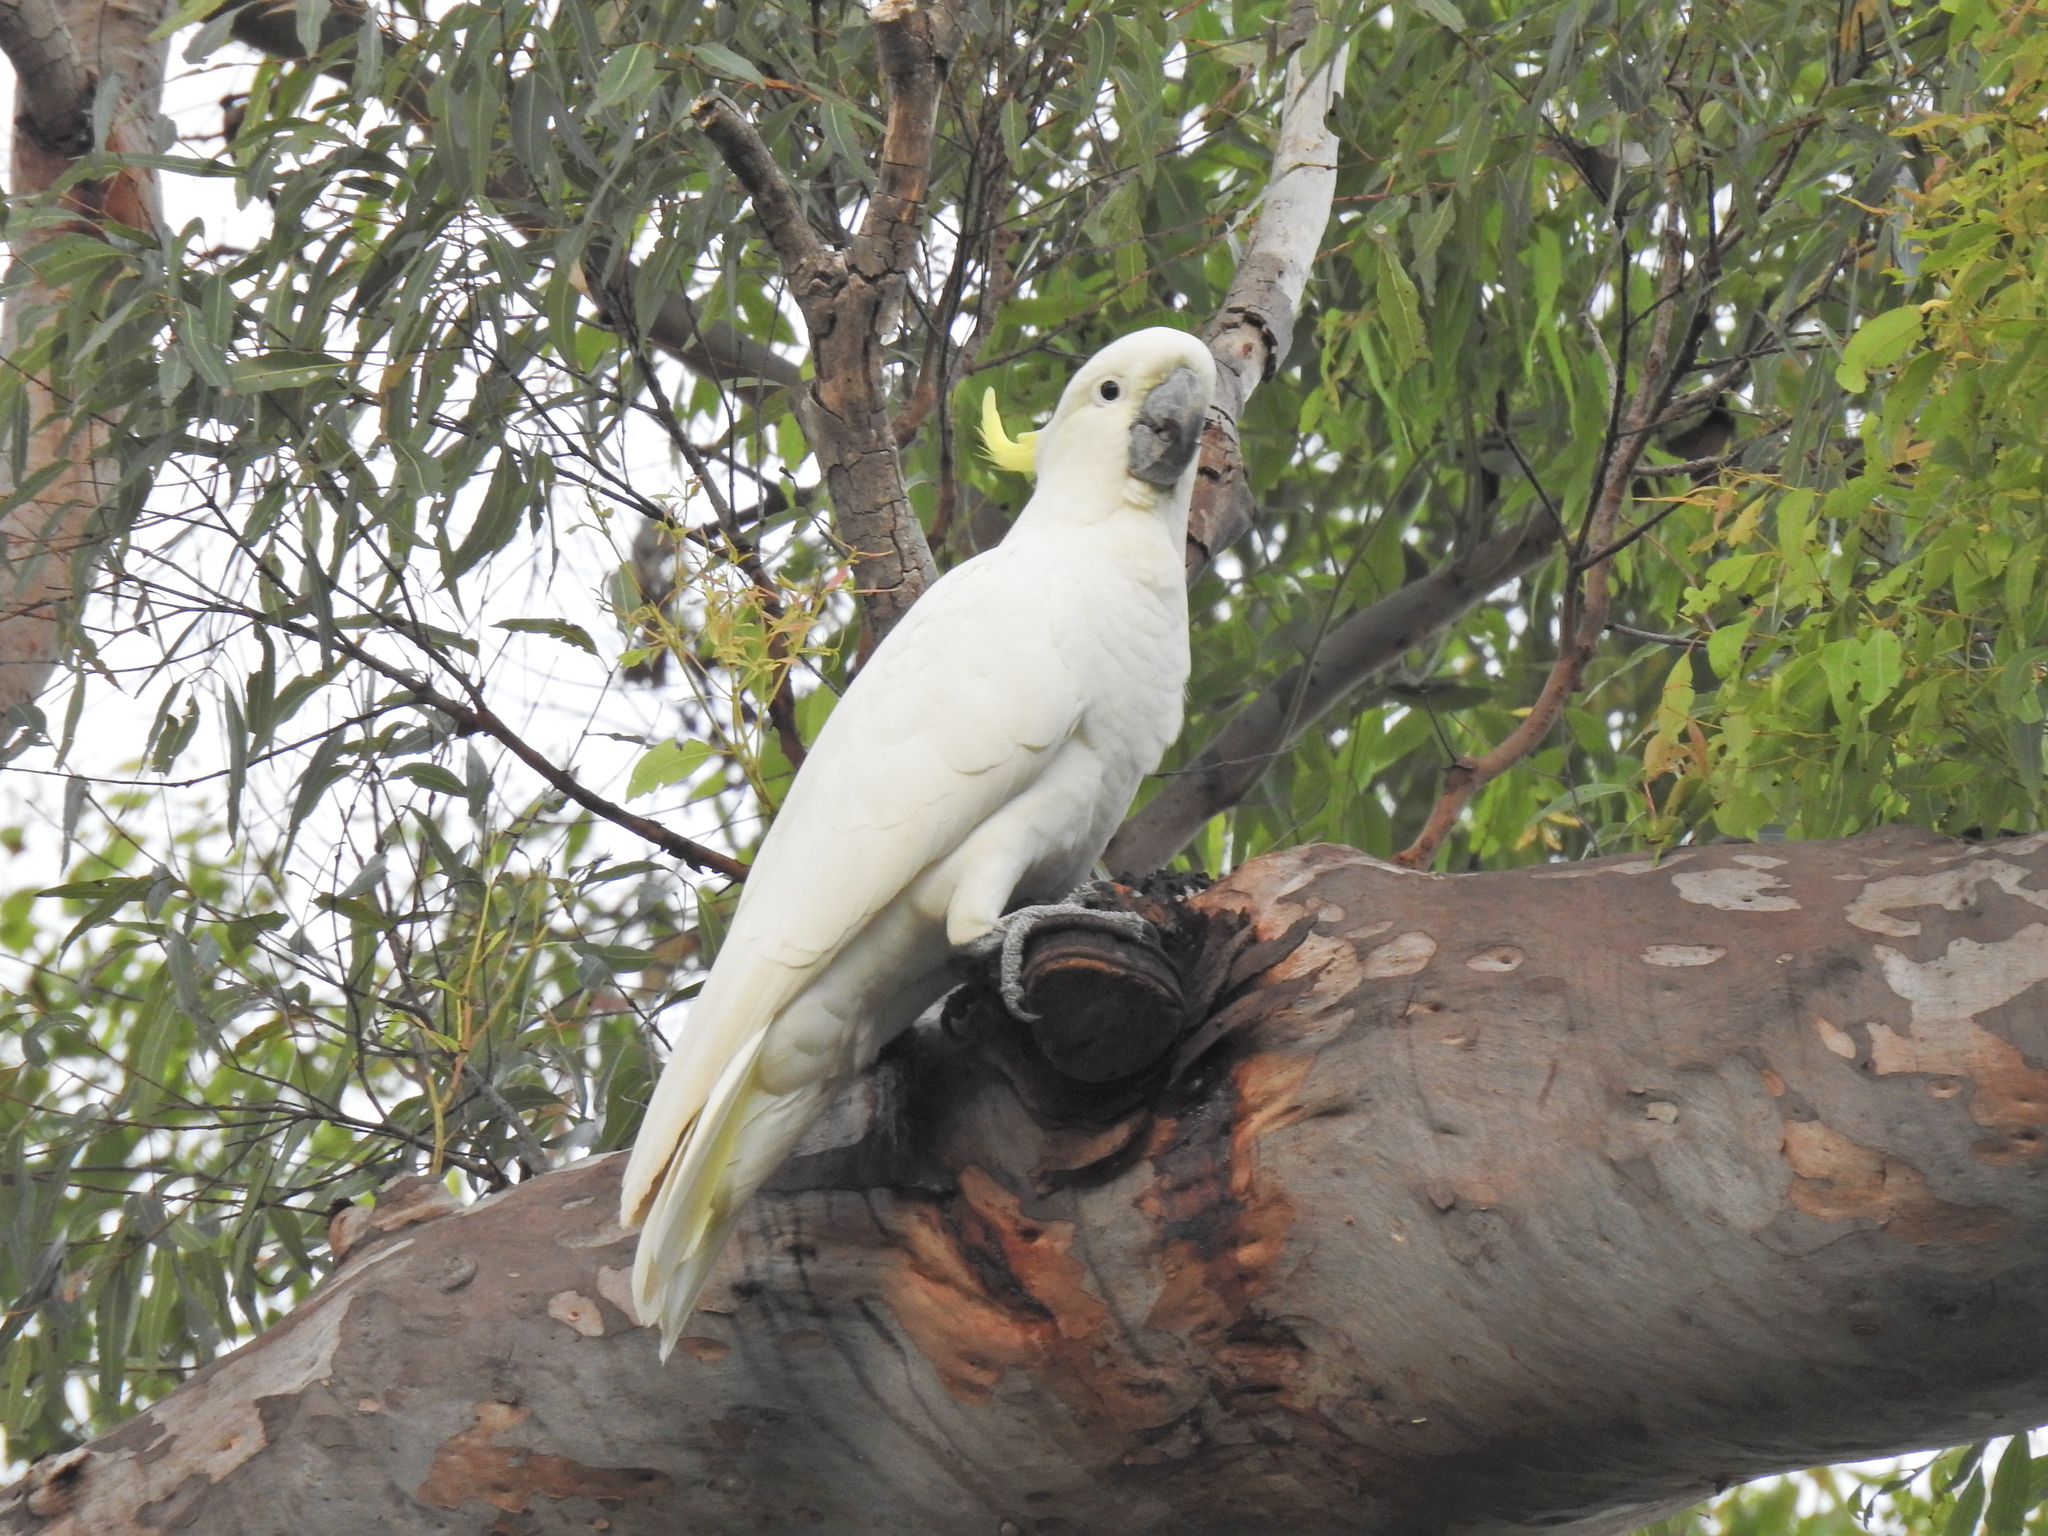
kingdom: Animalia
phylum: Chordata
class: Aves
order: Psittaciformes
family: Psittacidae
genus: Cacatua
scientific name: Cacatua galerita
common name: Sulphur-crested cockatoo
